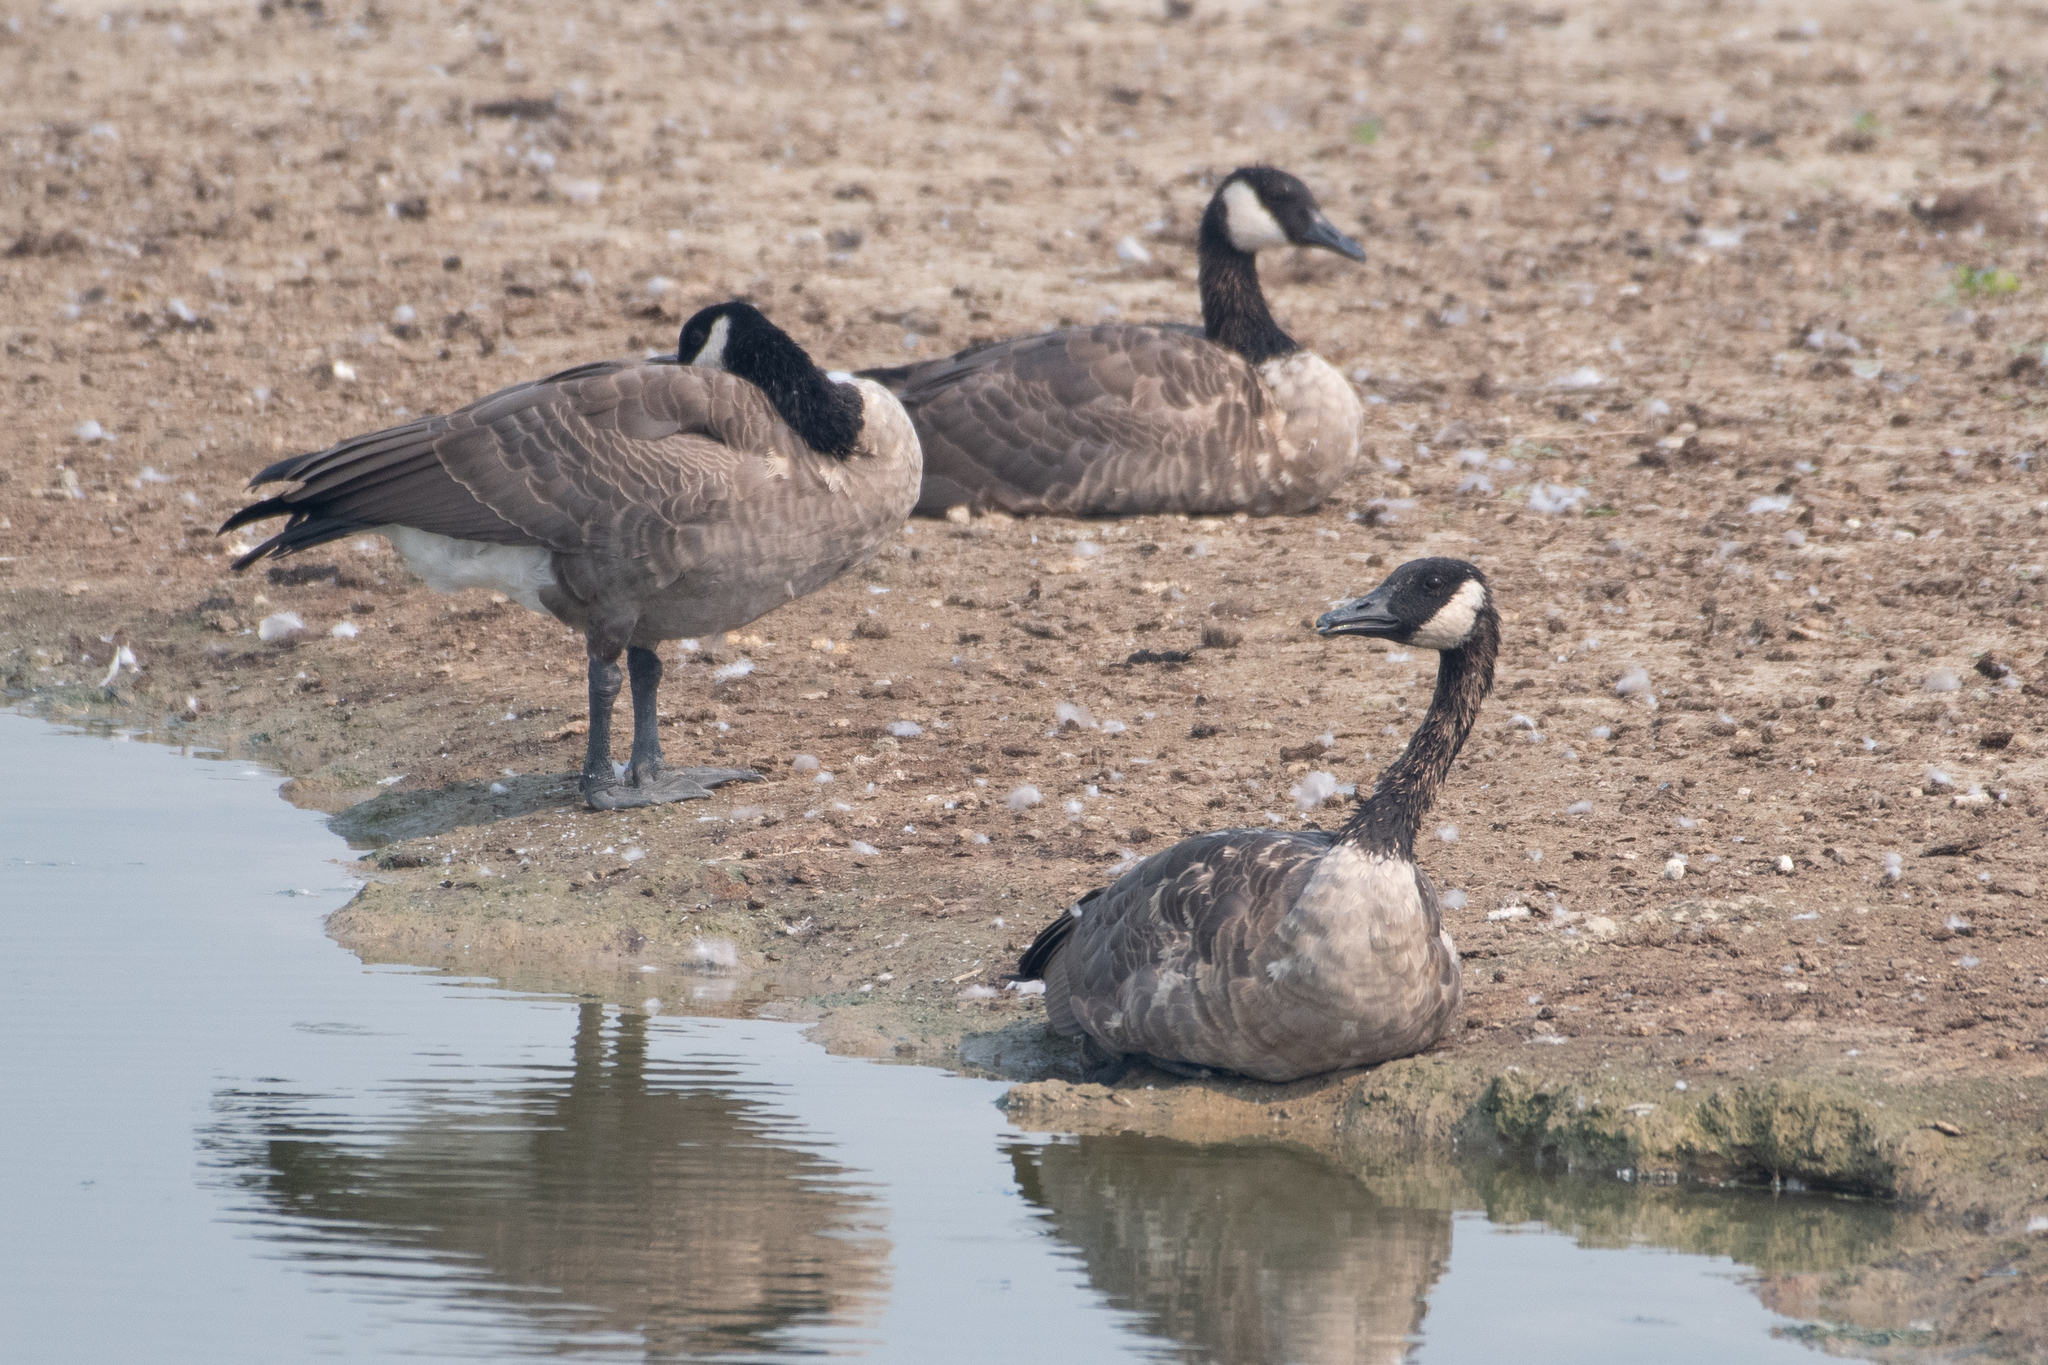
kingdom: Animalia
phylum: Chordata
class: Aves
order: Anseriformes
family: Anatidae
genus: Branta
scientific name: Branta canadensis
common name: Canada goose
